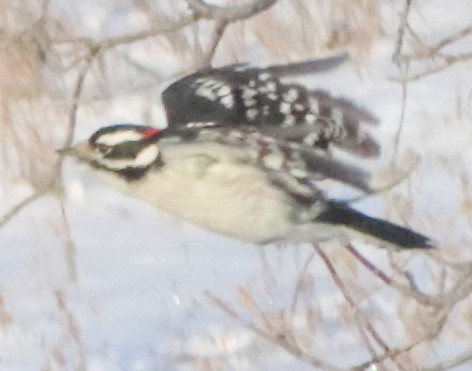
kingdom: Animalia
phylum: Chordata
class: Aves
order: Piciformes
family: Picidae
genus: Dryobates
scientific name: Dryobates pubescens
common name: Downy woodpecker
